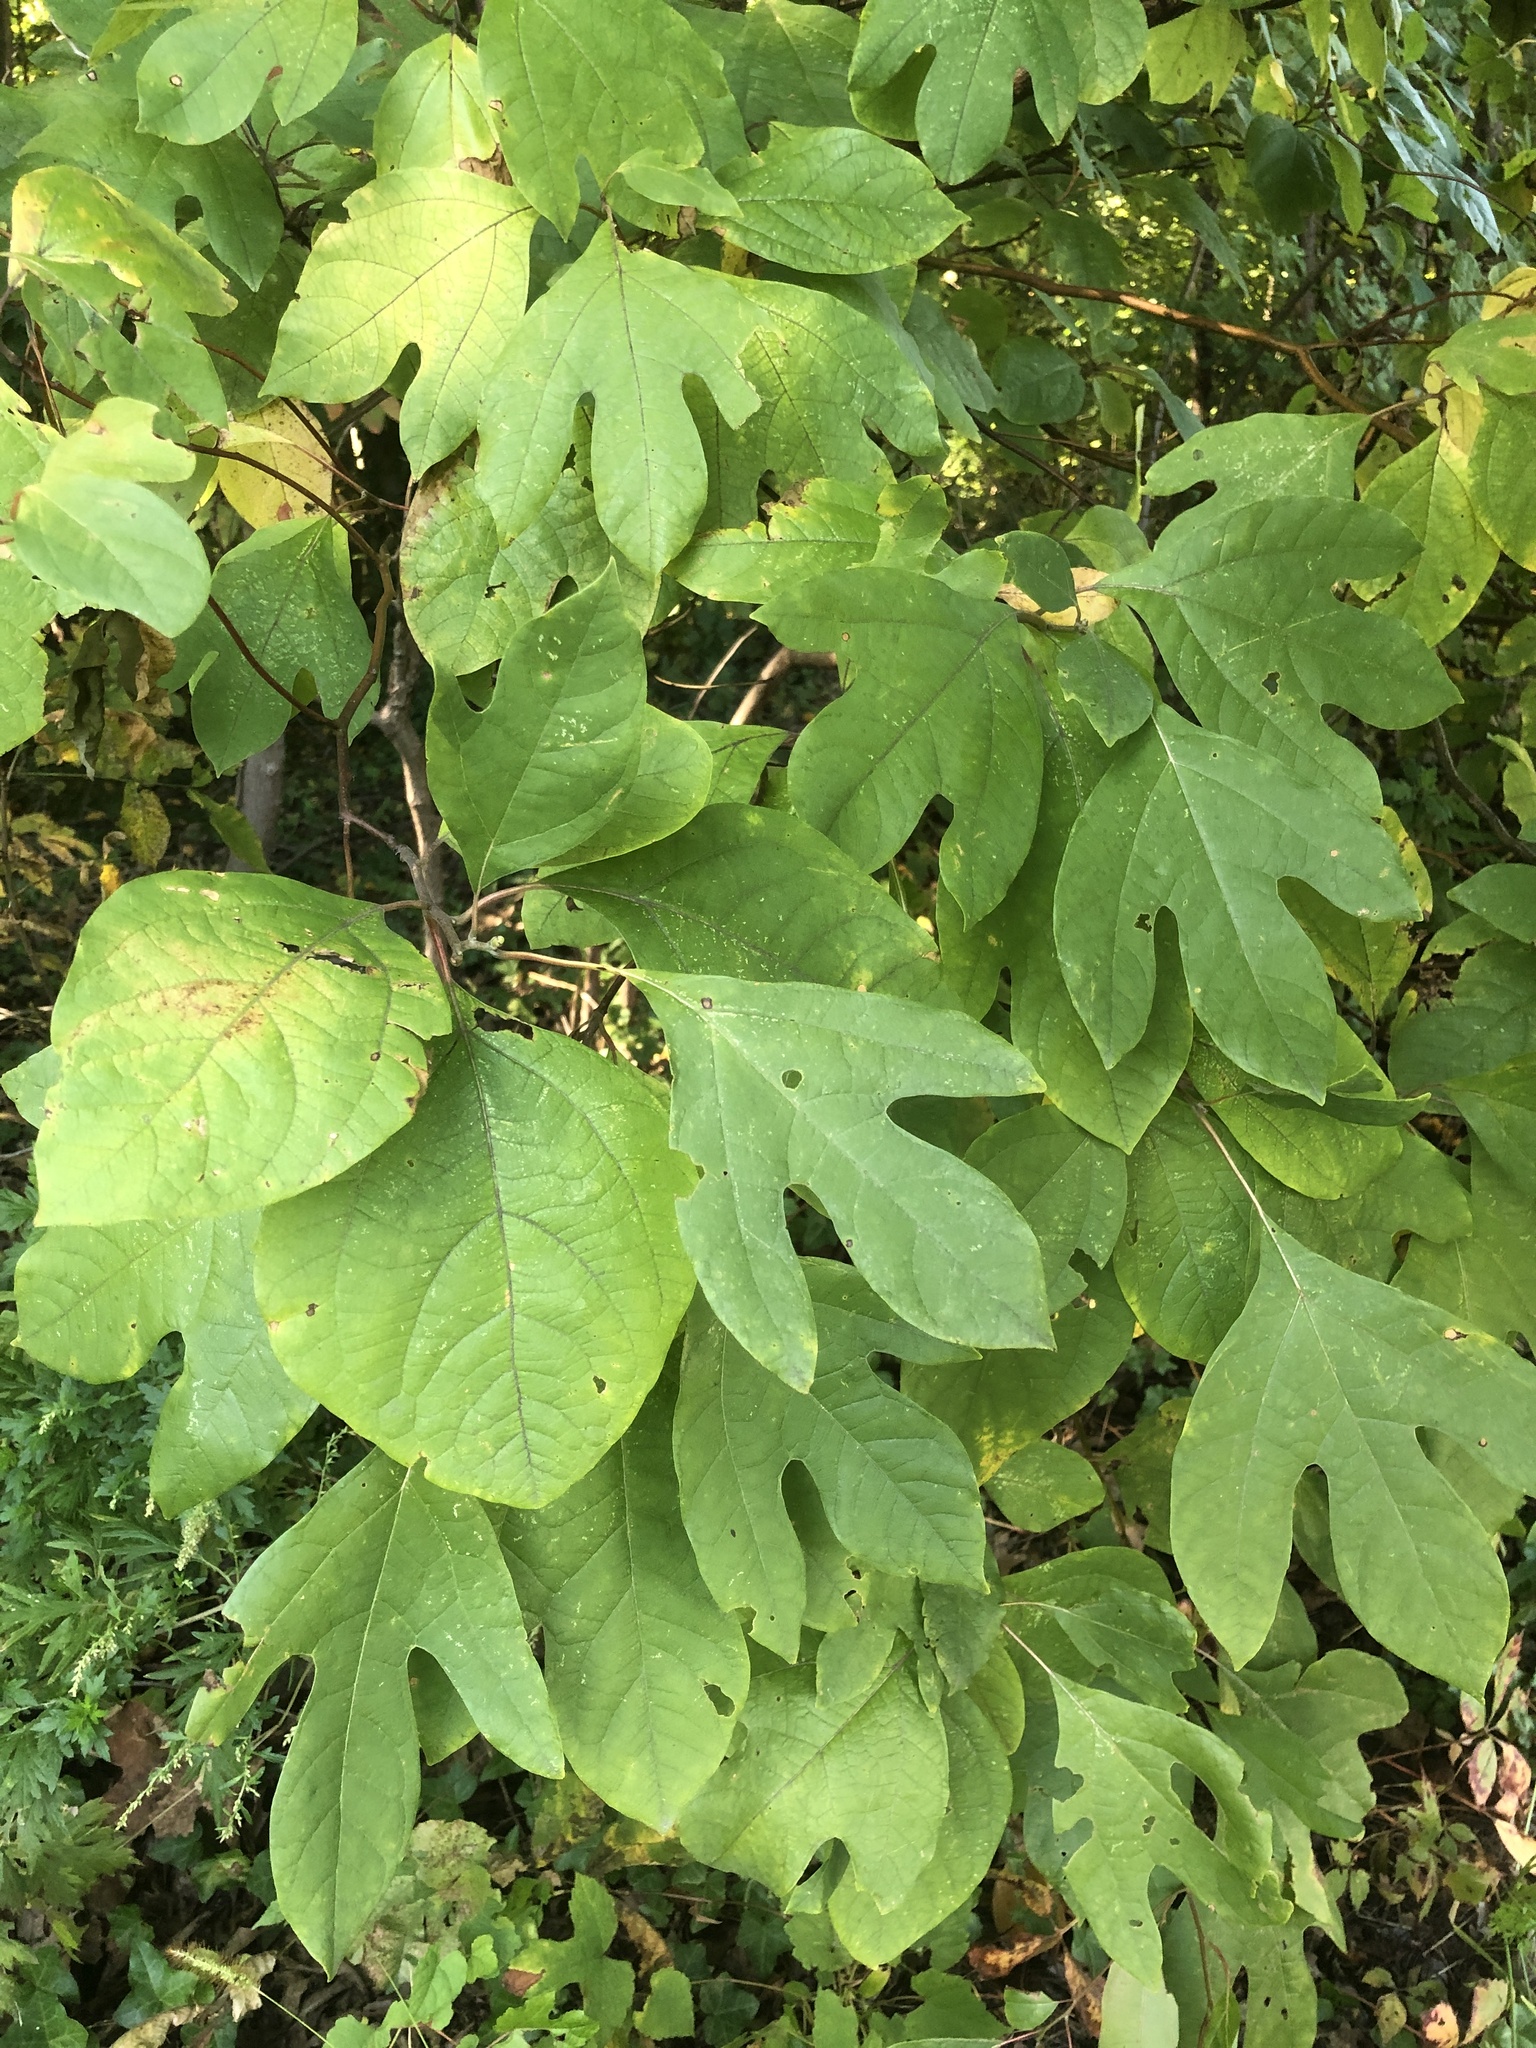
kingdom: Plantae
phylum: Tracheophyta
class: Magnoliopsida
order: Laurales
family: Lauraceae
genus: Sassafras
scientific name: Sassafras albidum
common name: Sassafras
